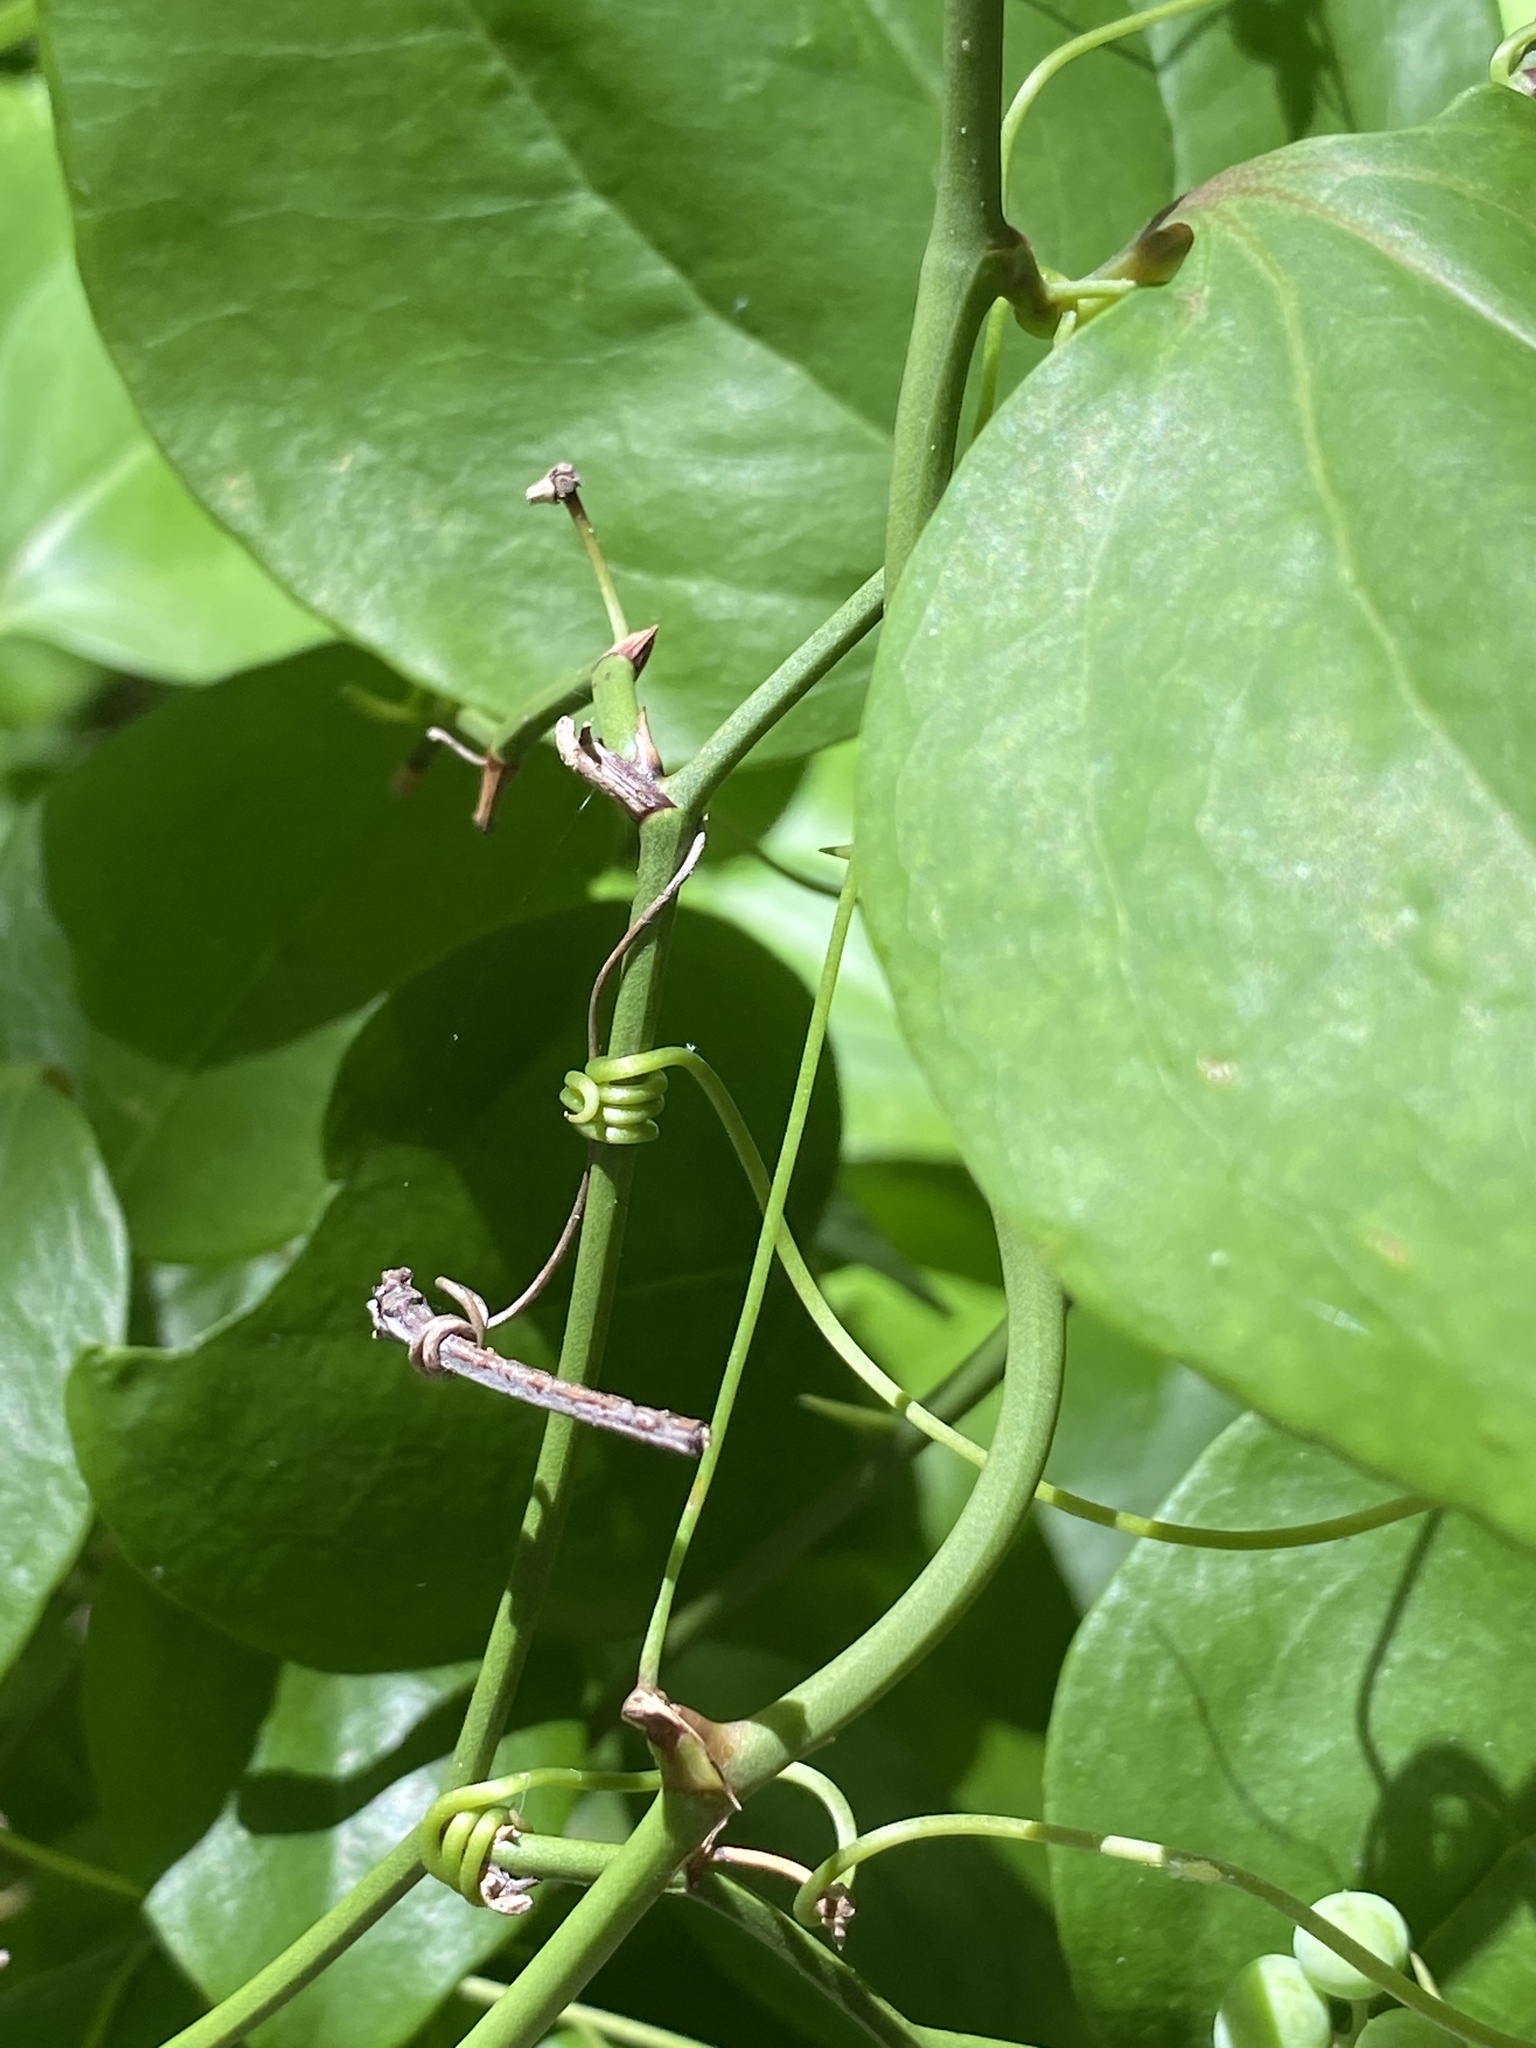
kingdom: Plantae
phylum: Tracheophyta
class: Liliopsida
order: Liliales
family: Smilacaceae
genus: Smilax
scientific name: Smilax rotundifolia
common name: Bullbriar
